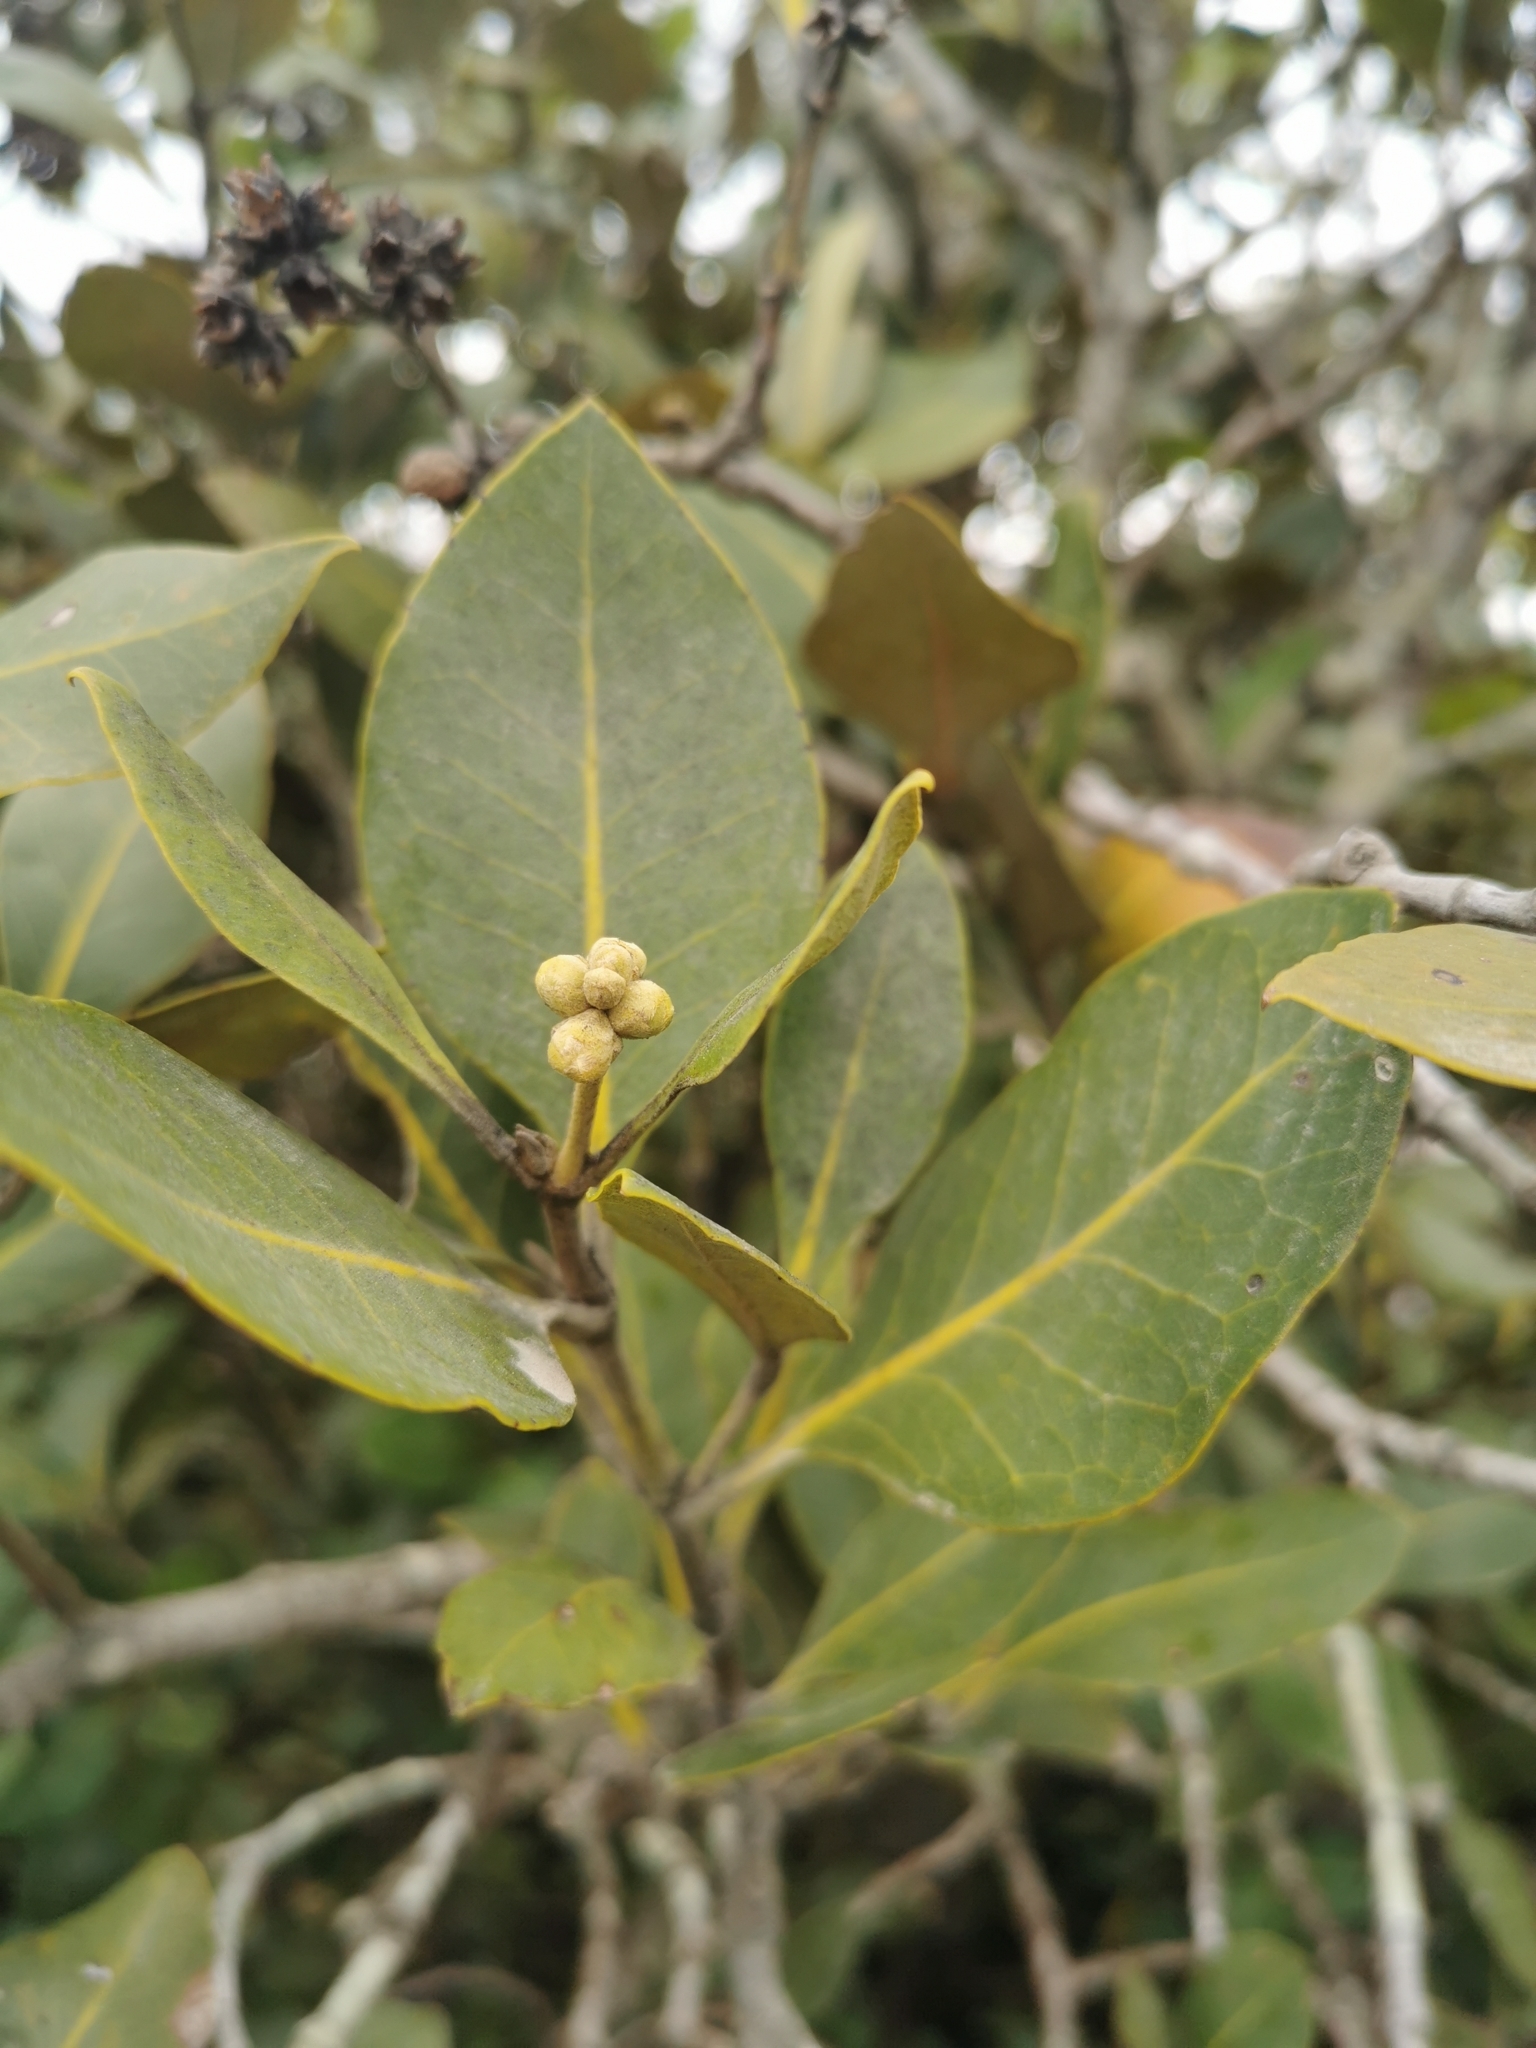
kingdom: Plantae
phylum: Tracheophyta
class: Magnoliopsida
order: Lamiales
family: Acanthaceae
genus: Avicennia
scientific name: Avicennia marina
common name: Gray mangrove
